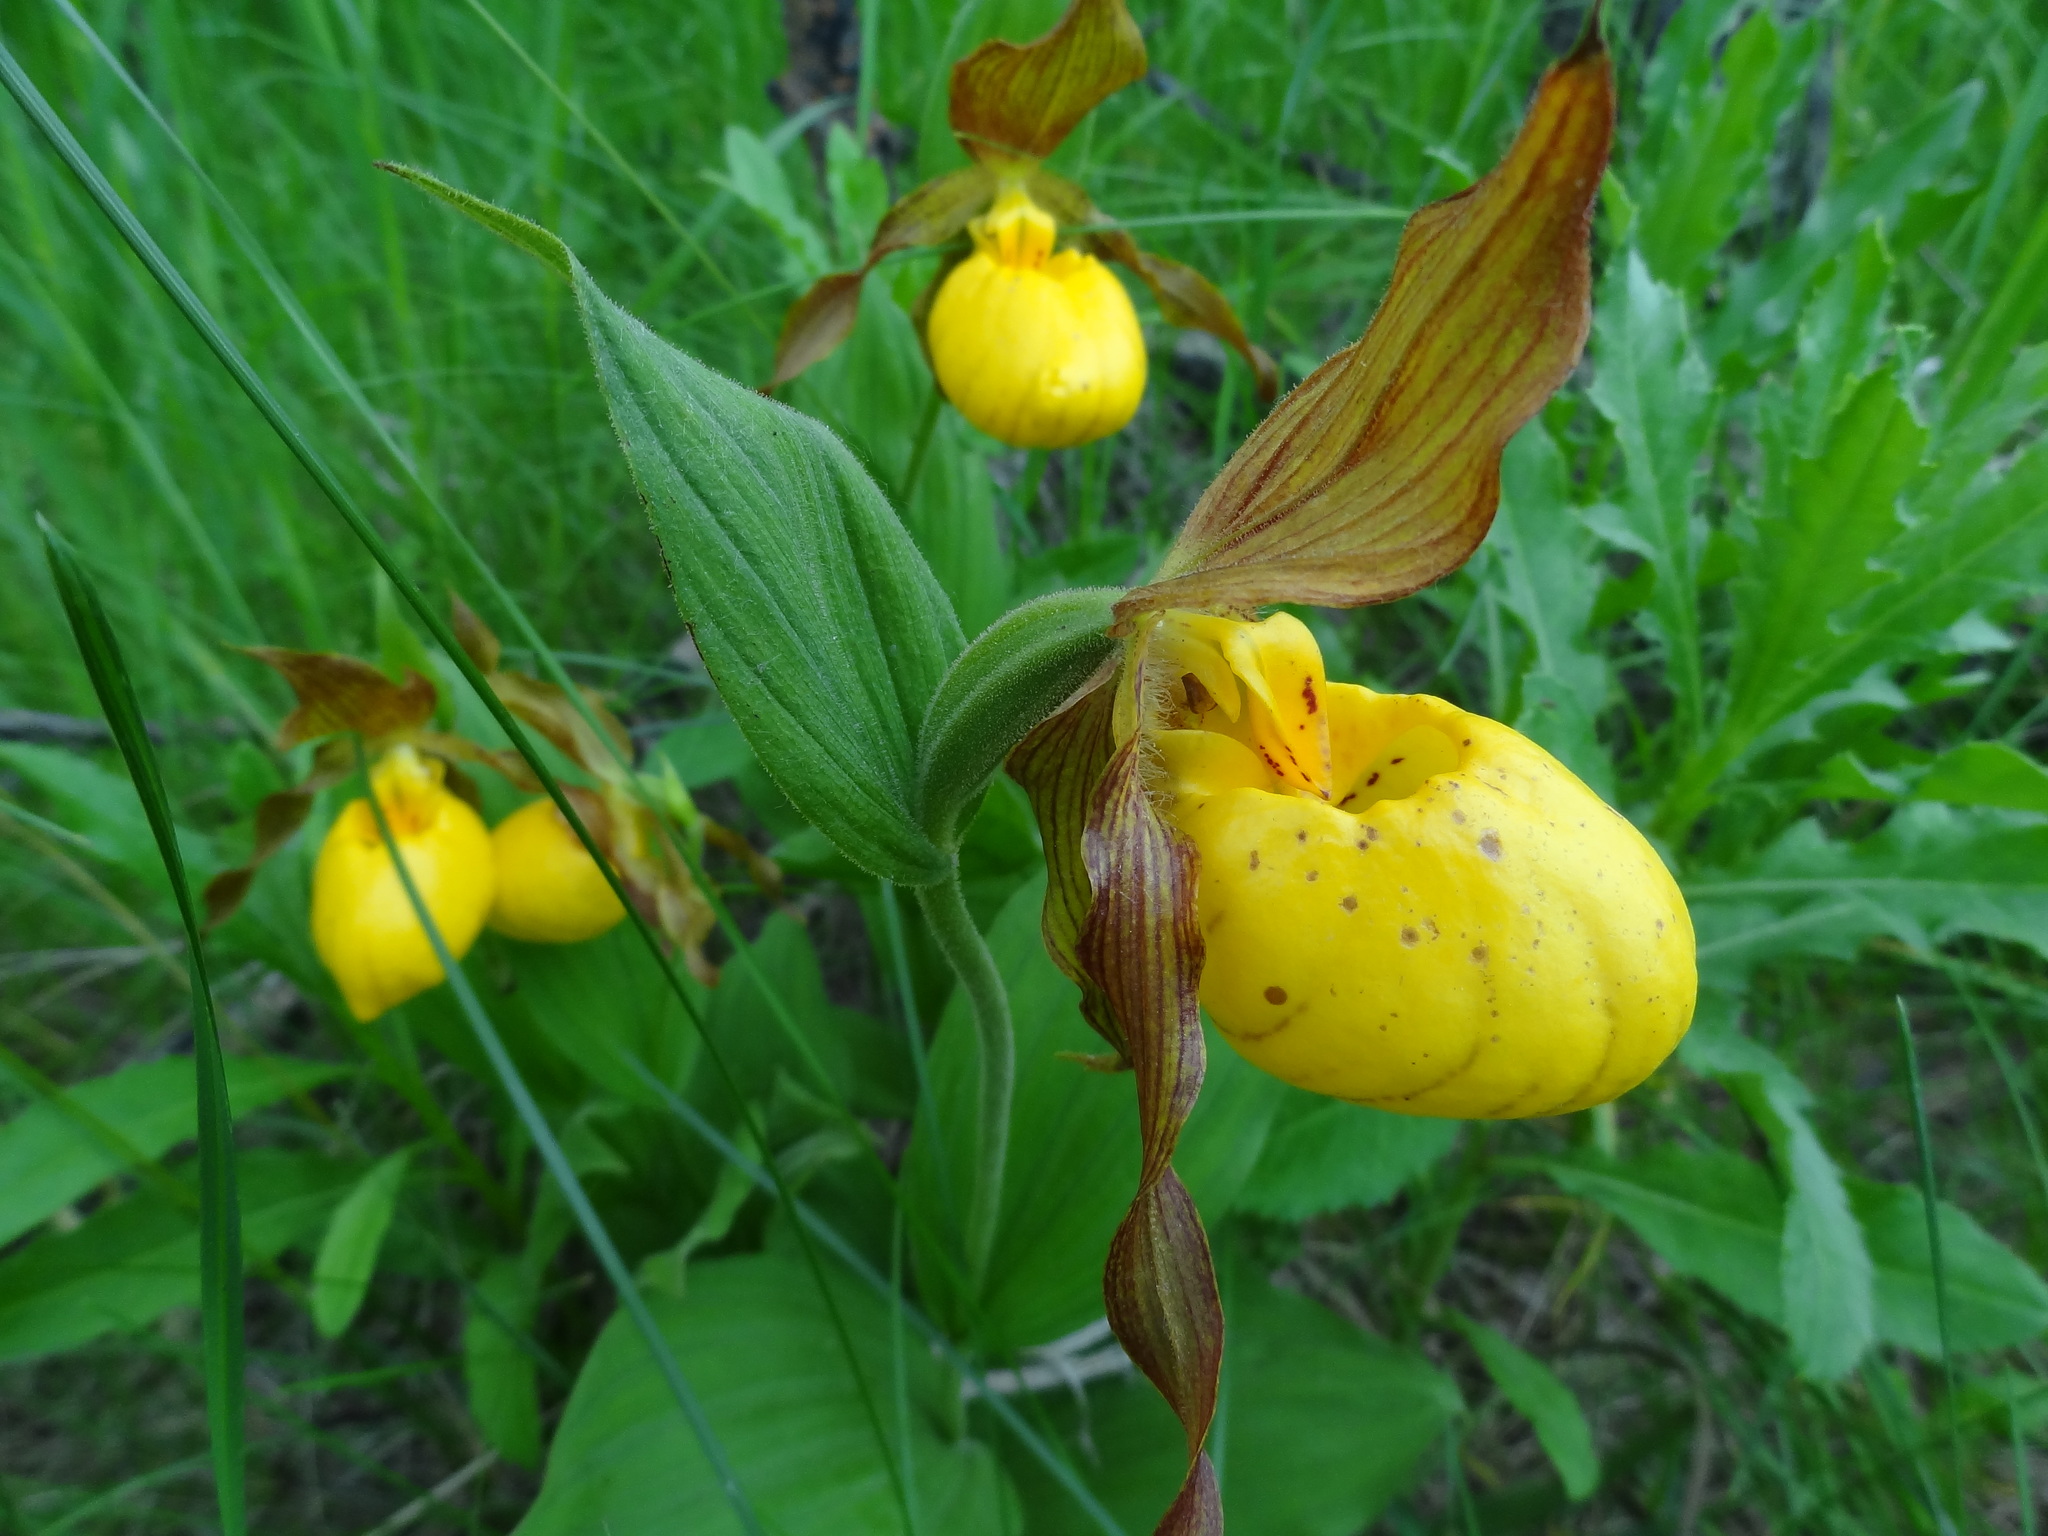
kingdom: Plantae
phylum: Tracheophyta
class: Liliopsida
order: Asparagales
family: Orchidaceae
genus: Cypripedium
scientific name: Cypripedium parviflorum
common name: American yellow lady's-slipper
